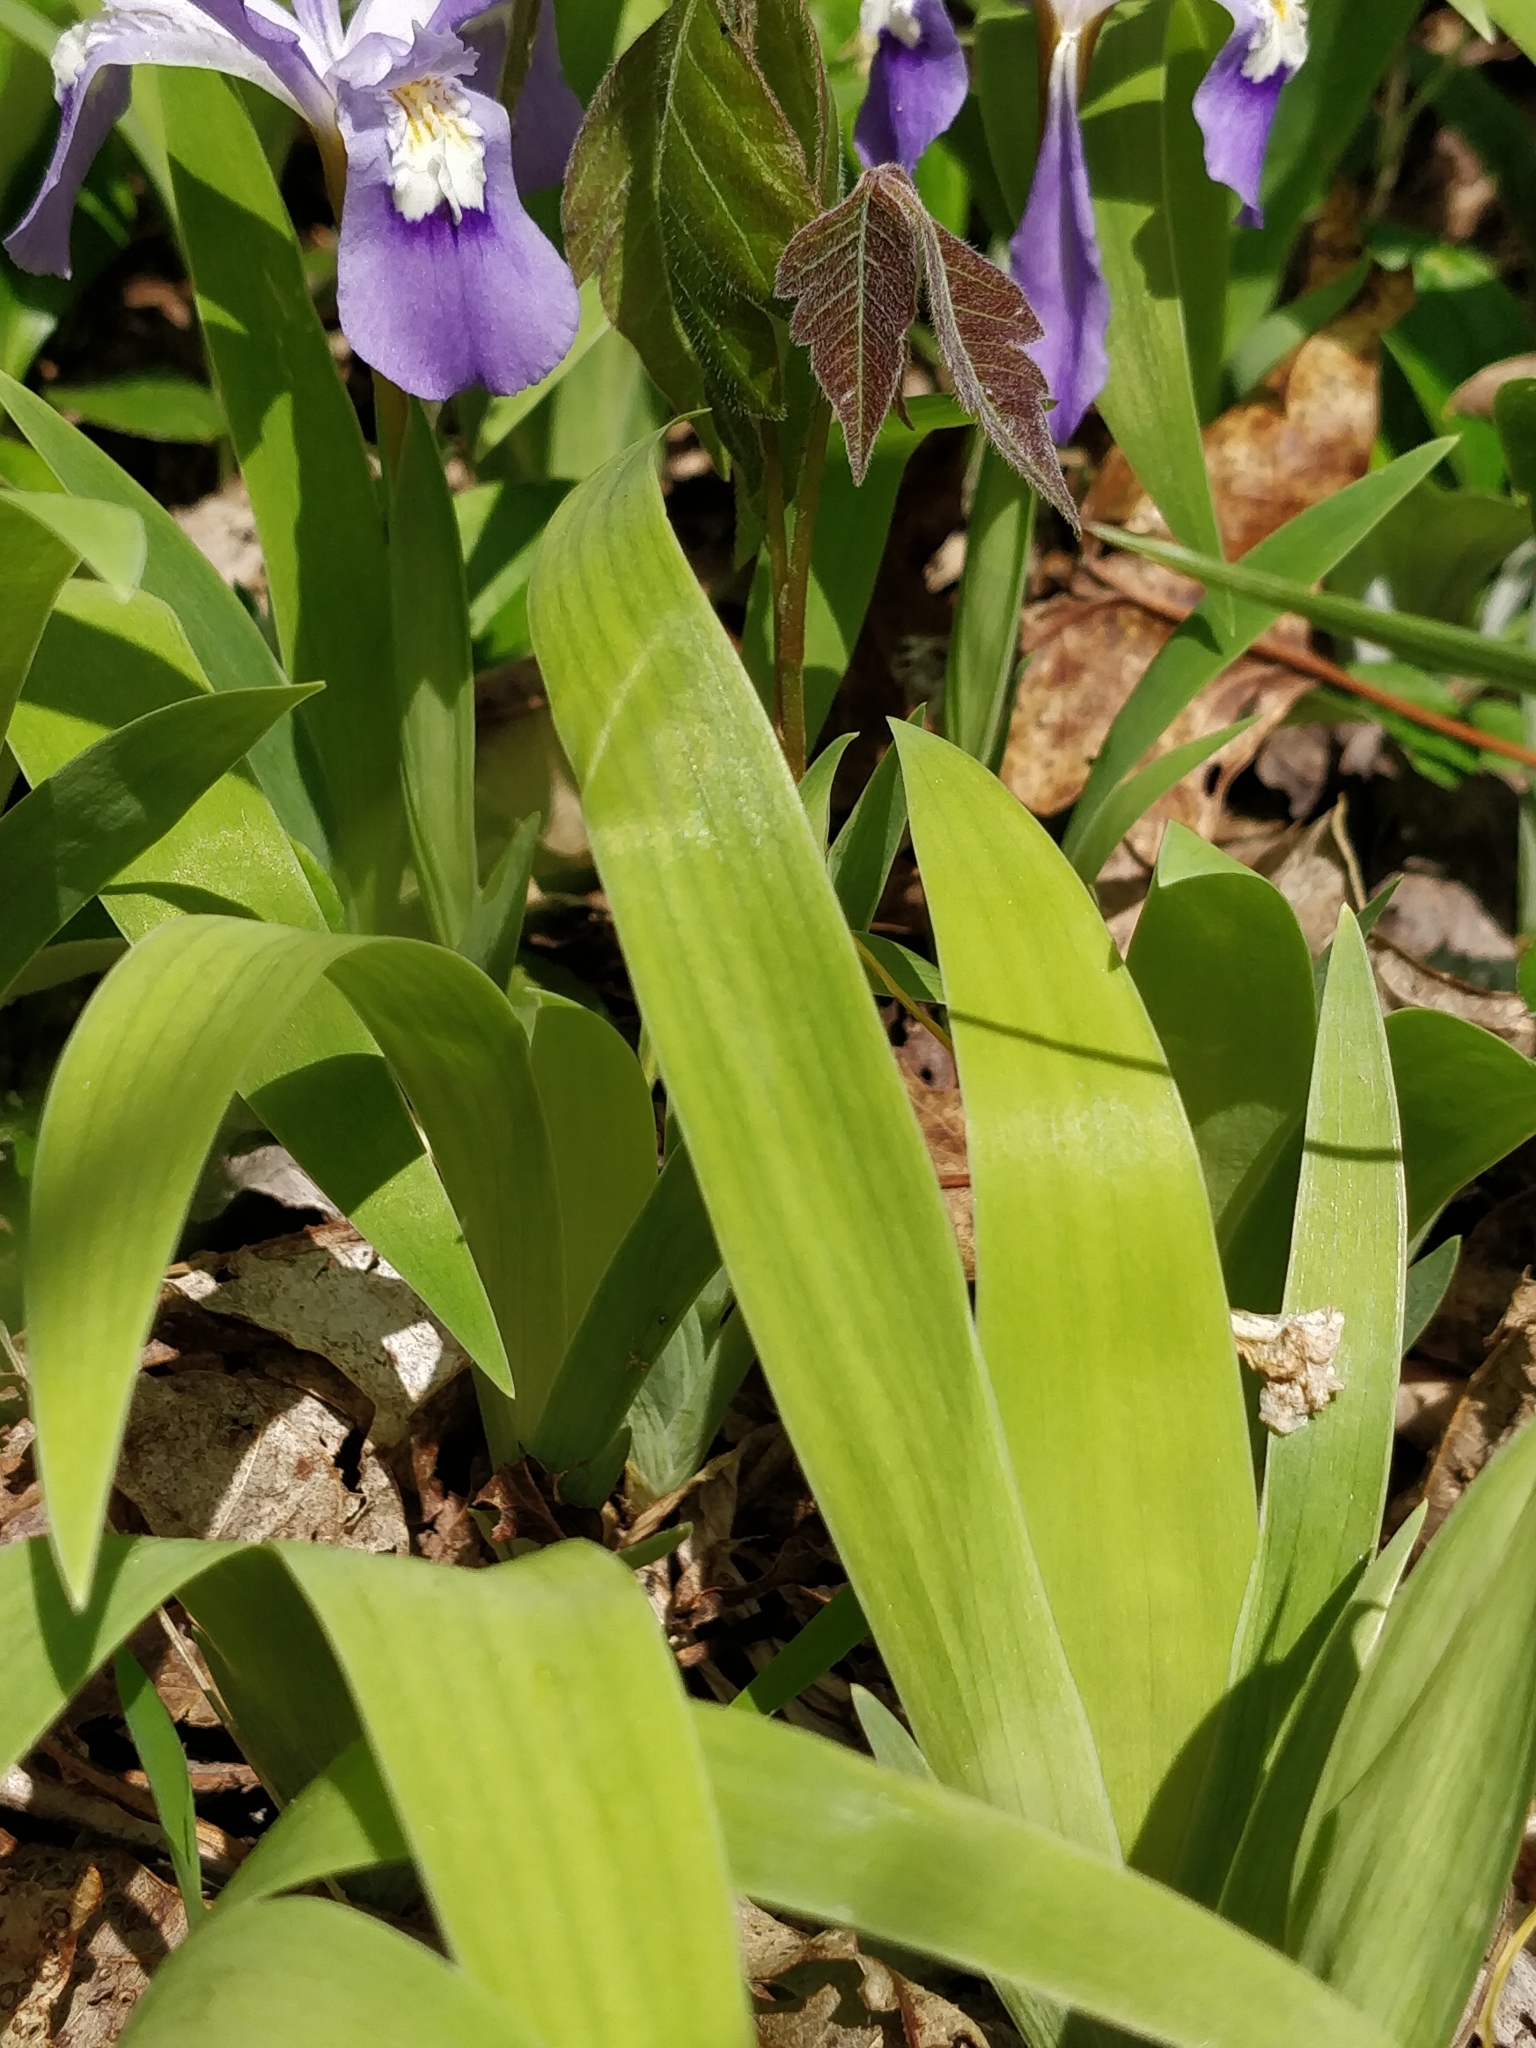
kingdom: Plantae
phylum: Tracheophyta
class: Liliopsida
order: Asparagales
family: Iridaceae
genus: Iris
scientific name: Iris cristata
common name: Crested iris
